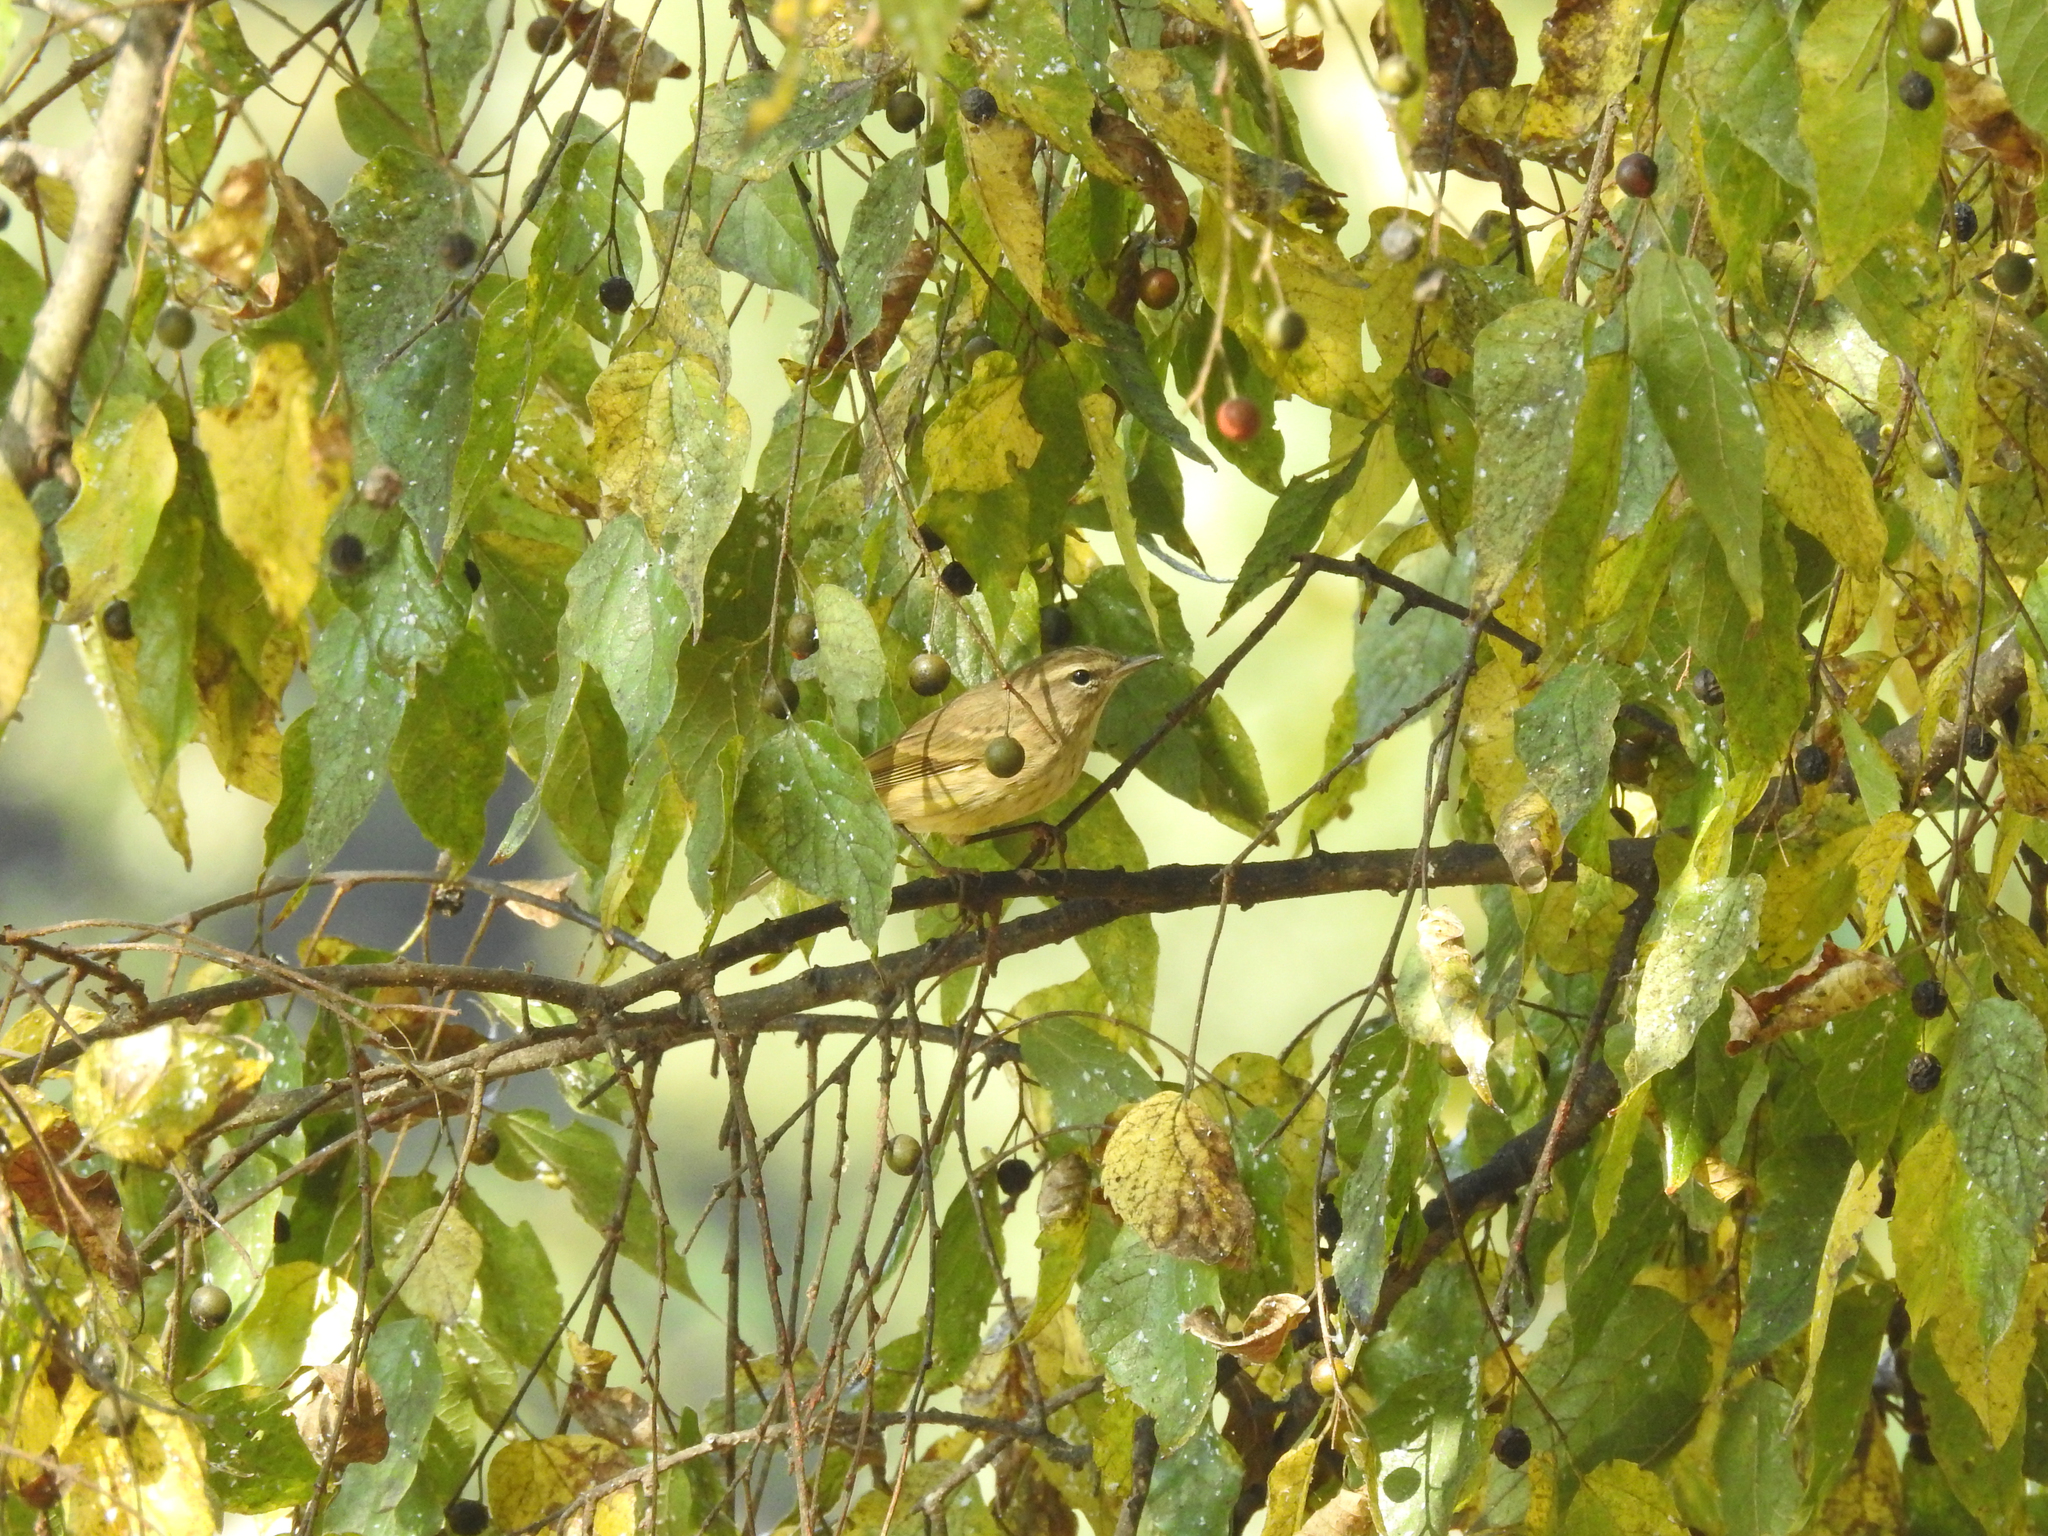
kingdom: Animalia
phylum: Chordata
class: Aves
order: Passeriformes
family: Parulidae
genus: Setophaga
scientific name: Setophaga palmarum
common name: Palm warbler
